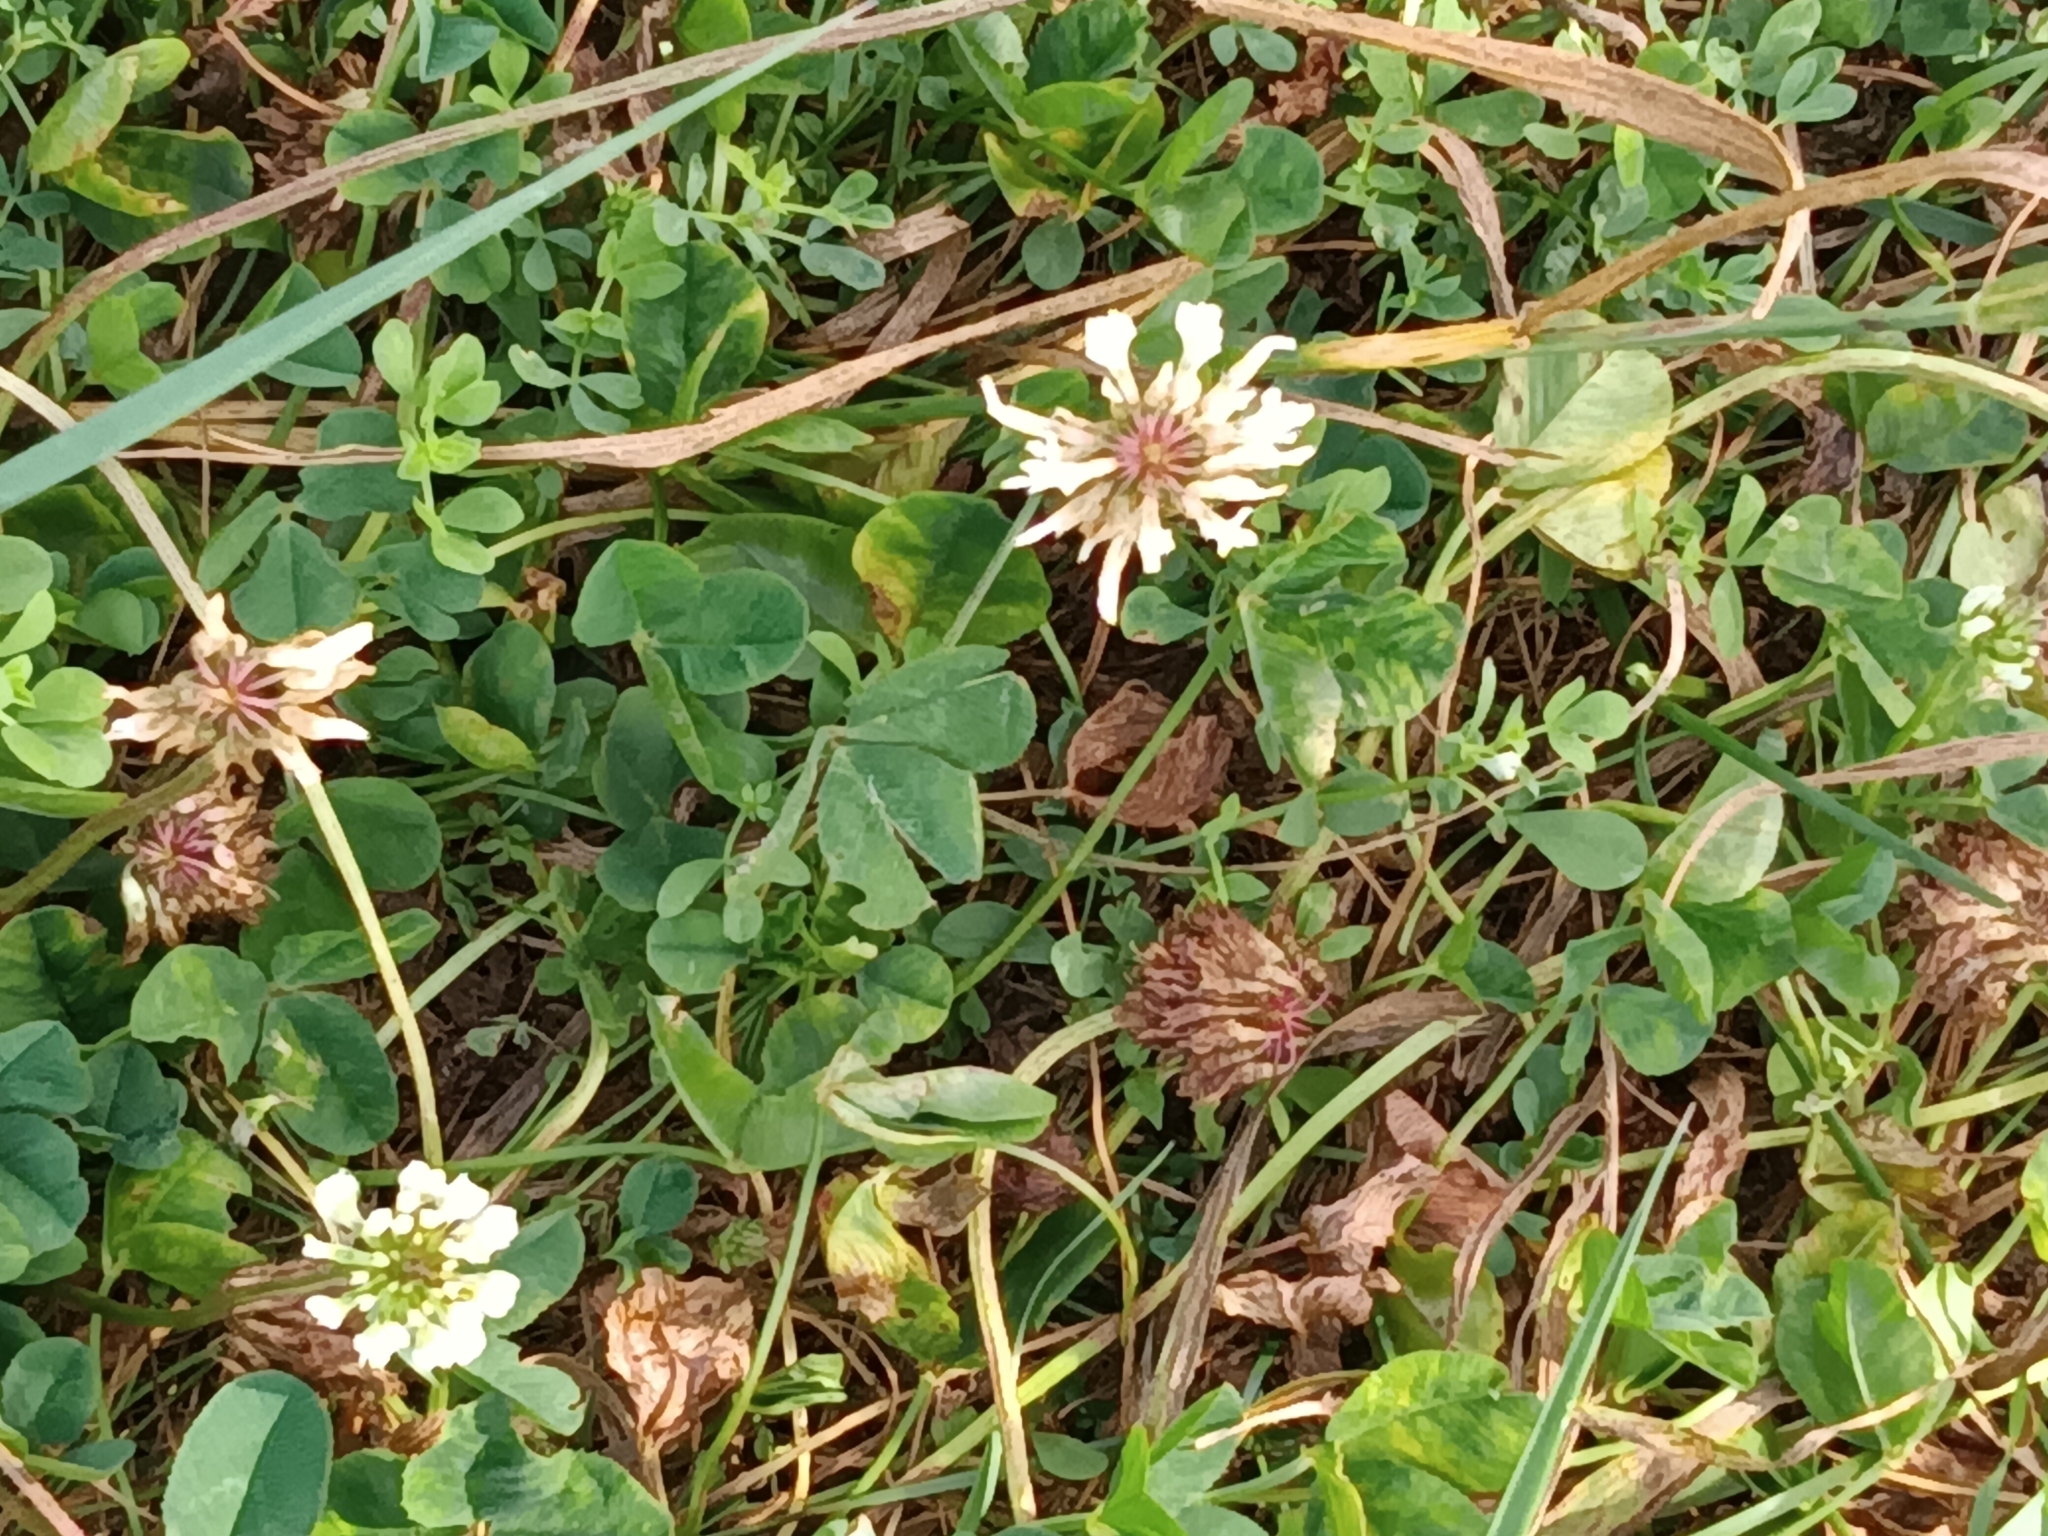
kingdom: Plantae
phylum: Tracheophyta
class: Magnoliopsida
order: Fabales
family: Fabaceae
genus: Trifolium
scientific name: Trifolium repens
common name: White clover
